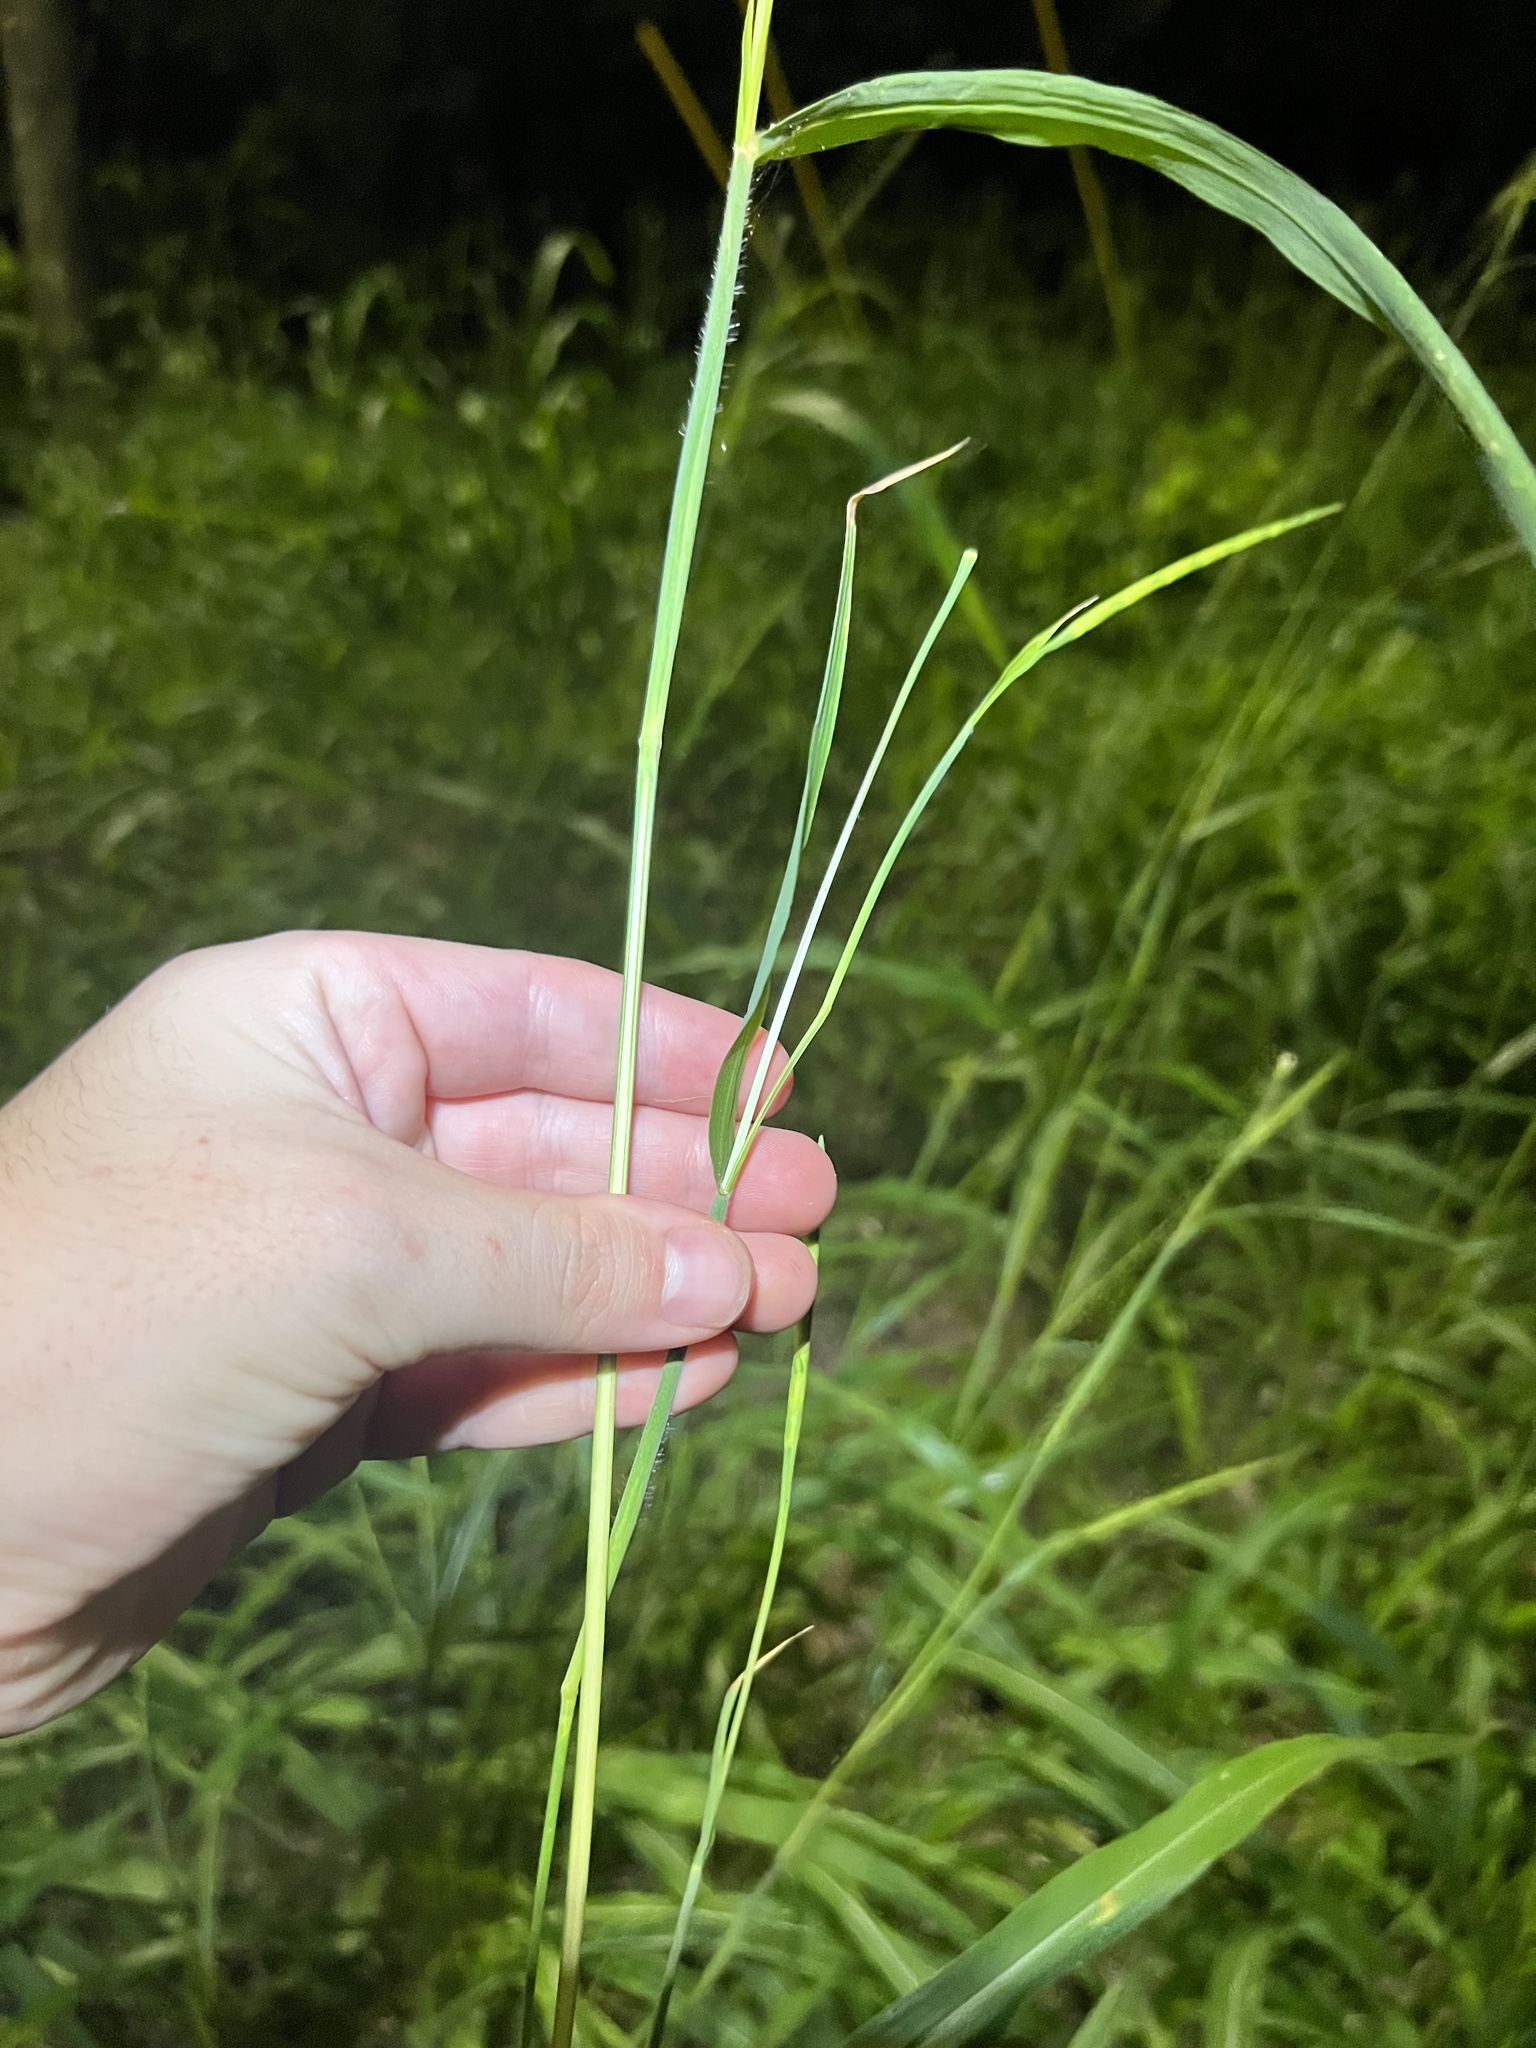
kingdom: Plantae
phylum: Tracheophyta
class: Liliopsida
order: Poales
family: Poaceae
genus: Rottboellia
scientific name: Rottboellia cochinchinensis
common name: Itchgrass
